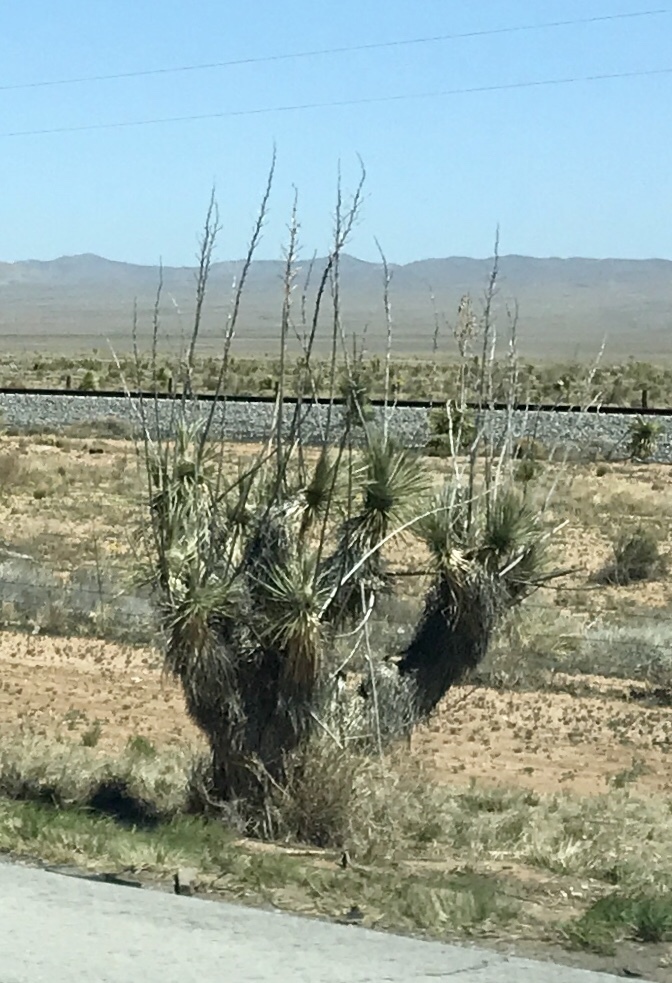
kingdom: Plantae
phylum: Tracheophyta
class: Liliopsida
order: Asparagales
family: Asparagaceae
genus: Yucca
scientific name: Yucca elata
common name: Palmella
